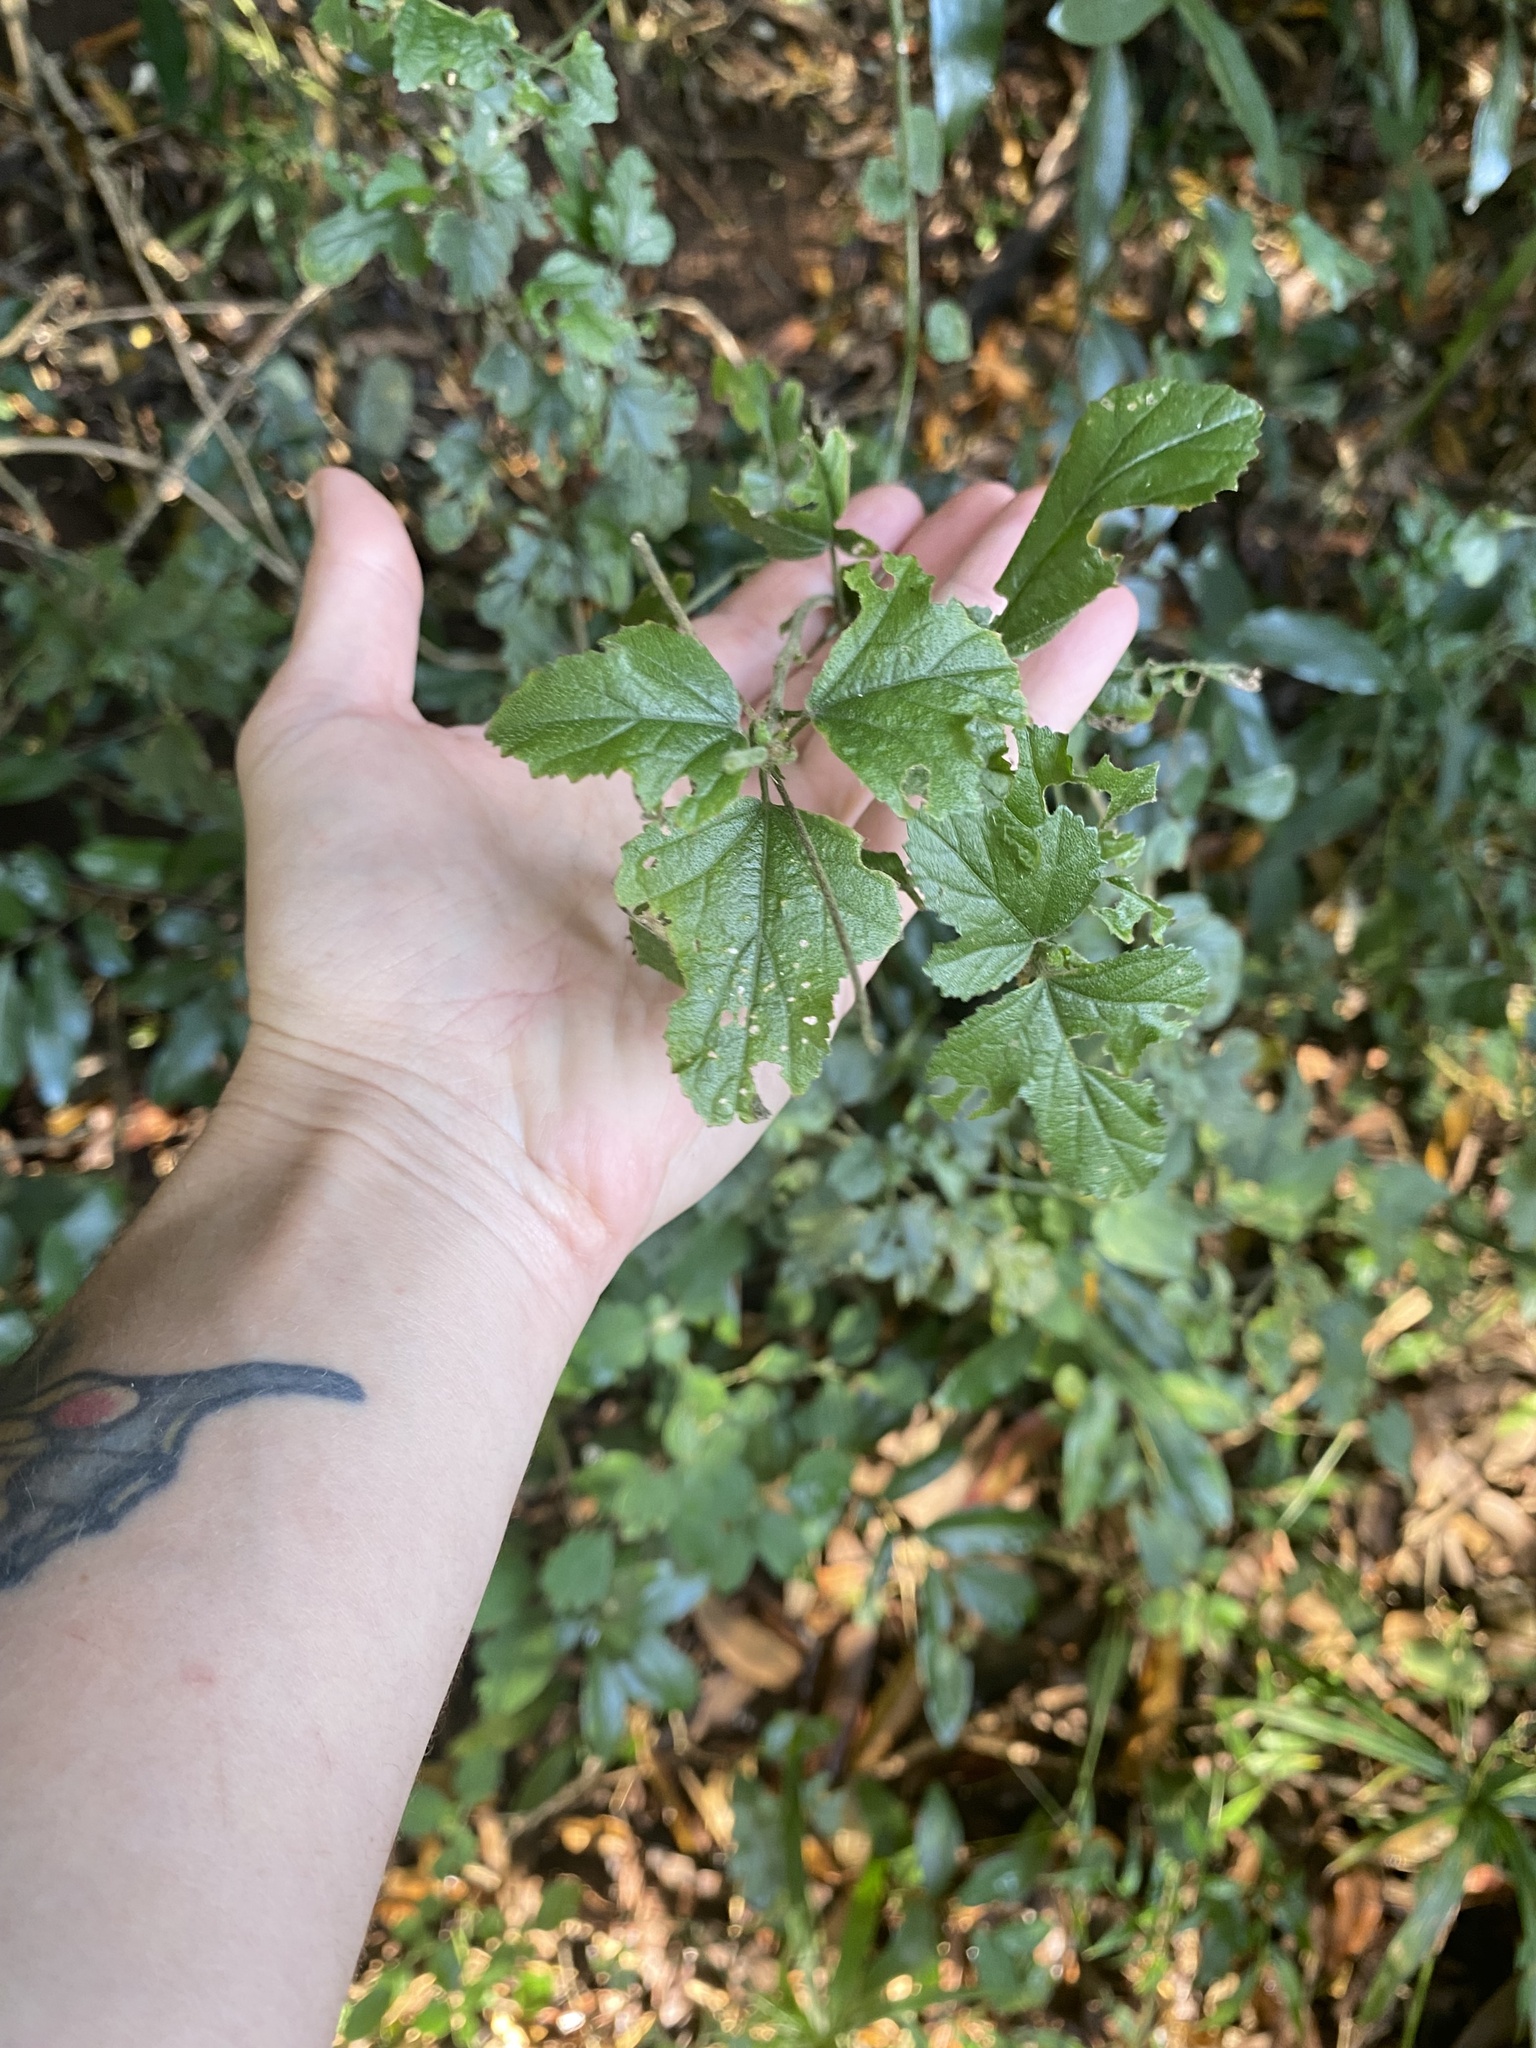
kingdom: Plantae
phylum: Tracheophyta
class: Magnoliopsida
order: Malvales
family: Malvaceae
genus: Hibiscus
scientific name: Hibiscus pedunculatus
